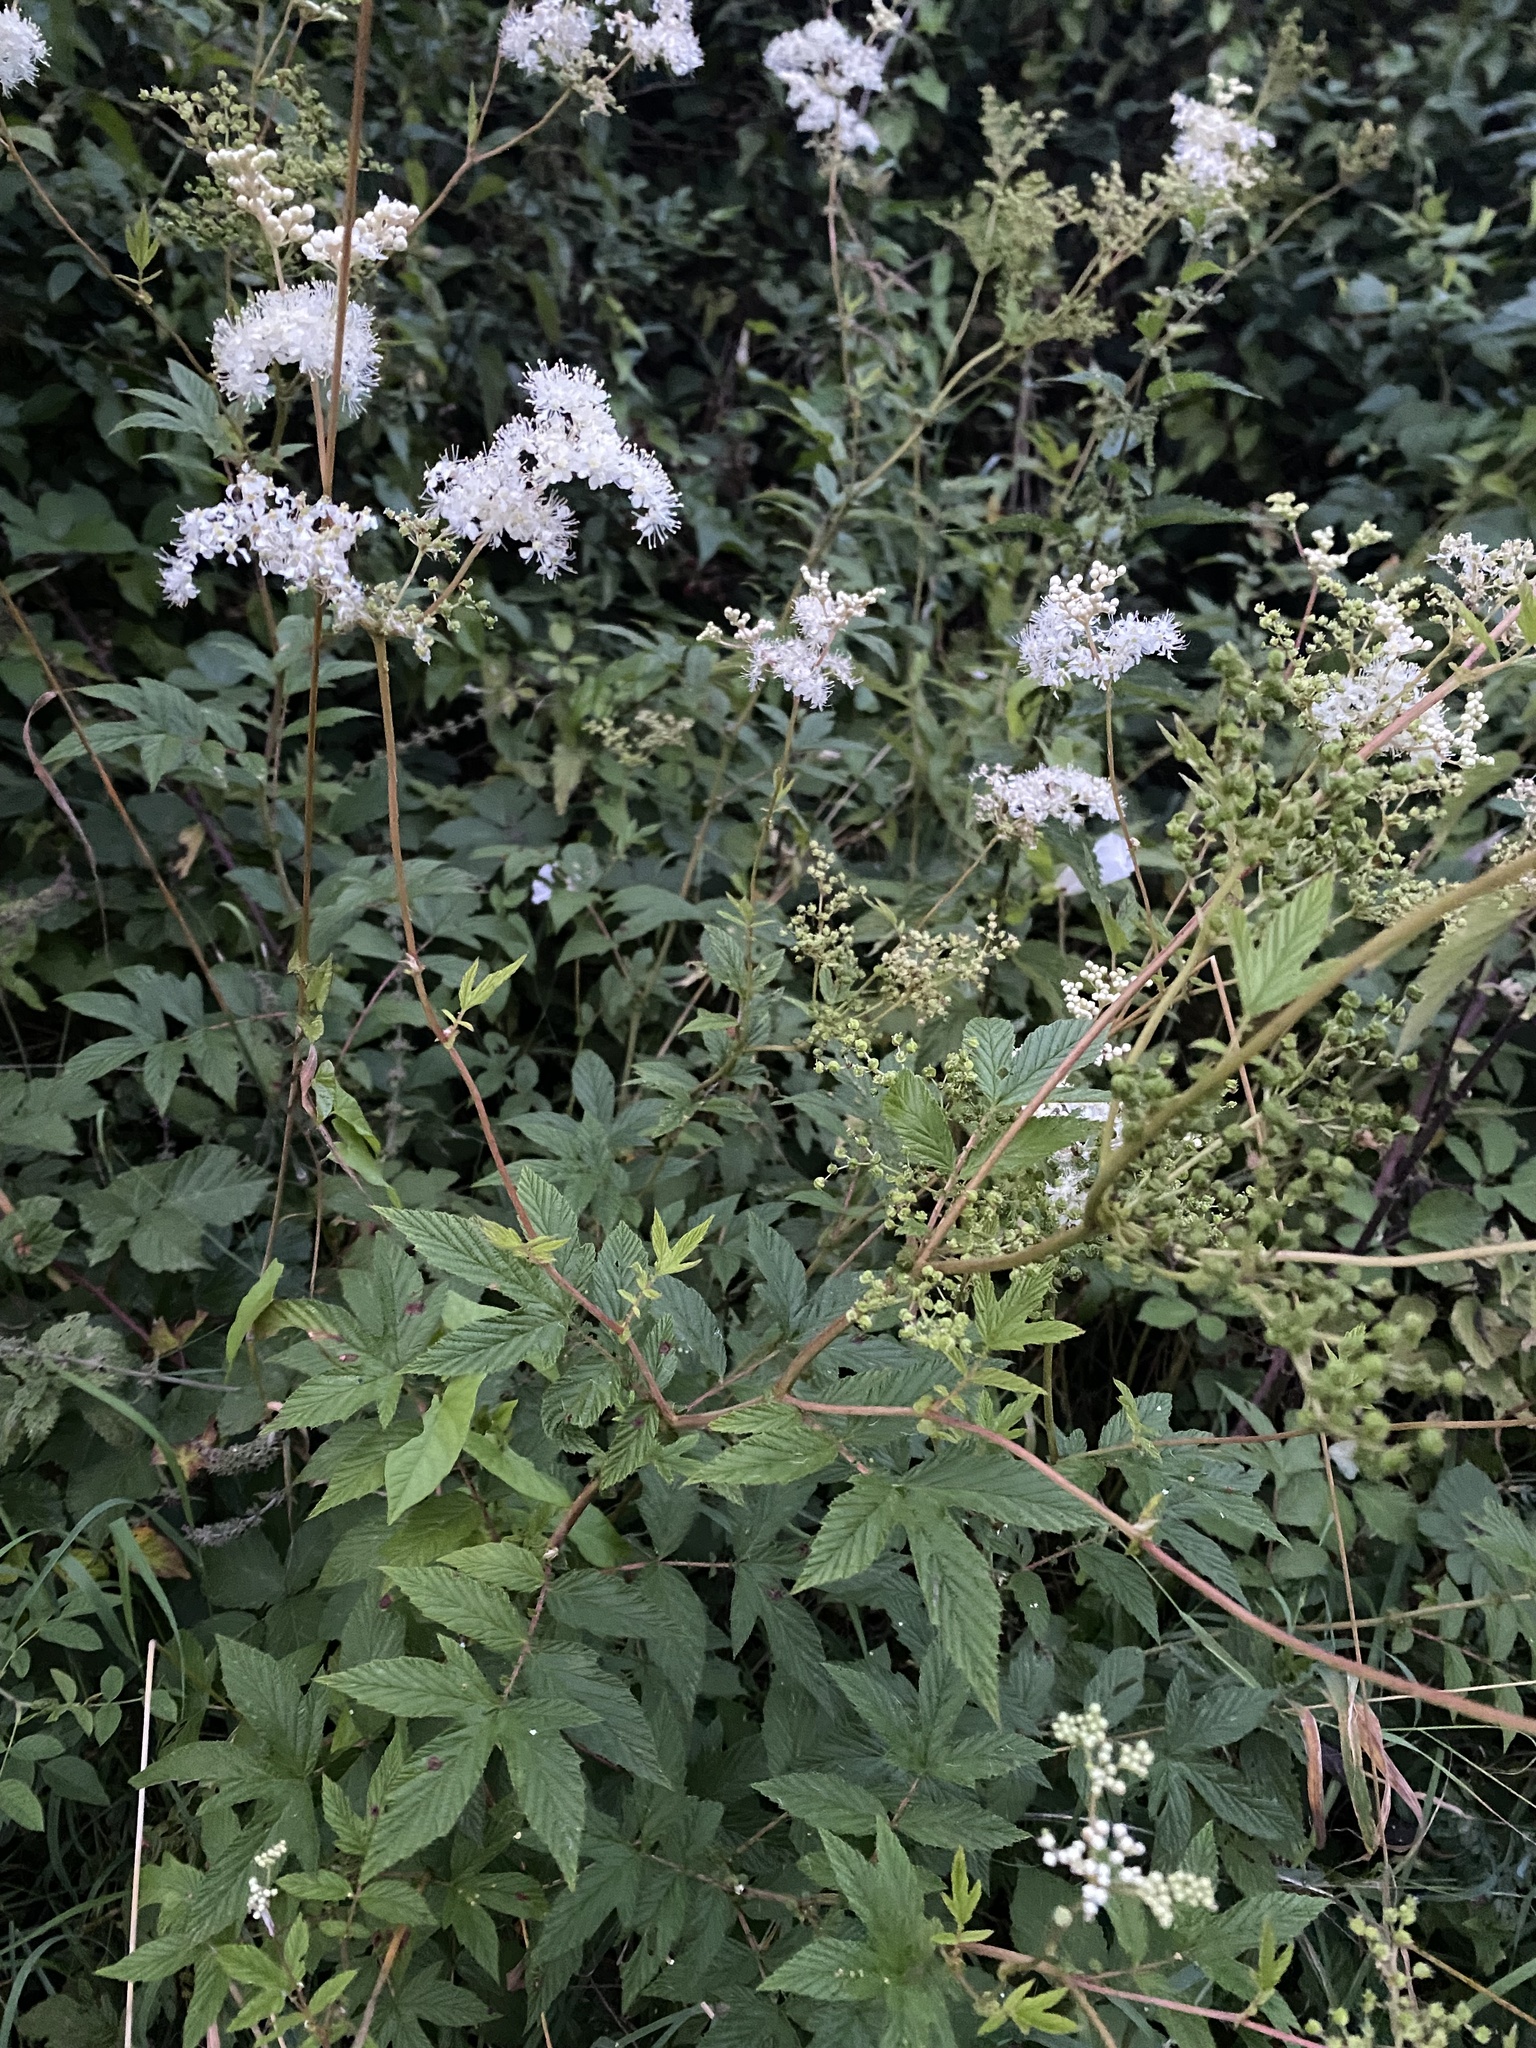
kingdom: Plantae
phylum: Tracheophyta
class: Magnoliopsida
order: Rosales
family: Rosaceae
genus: Filipendula
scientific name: Filipendula ulmaria
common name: Meadowsweet
